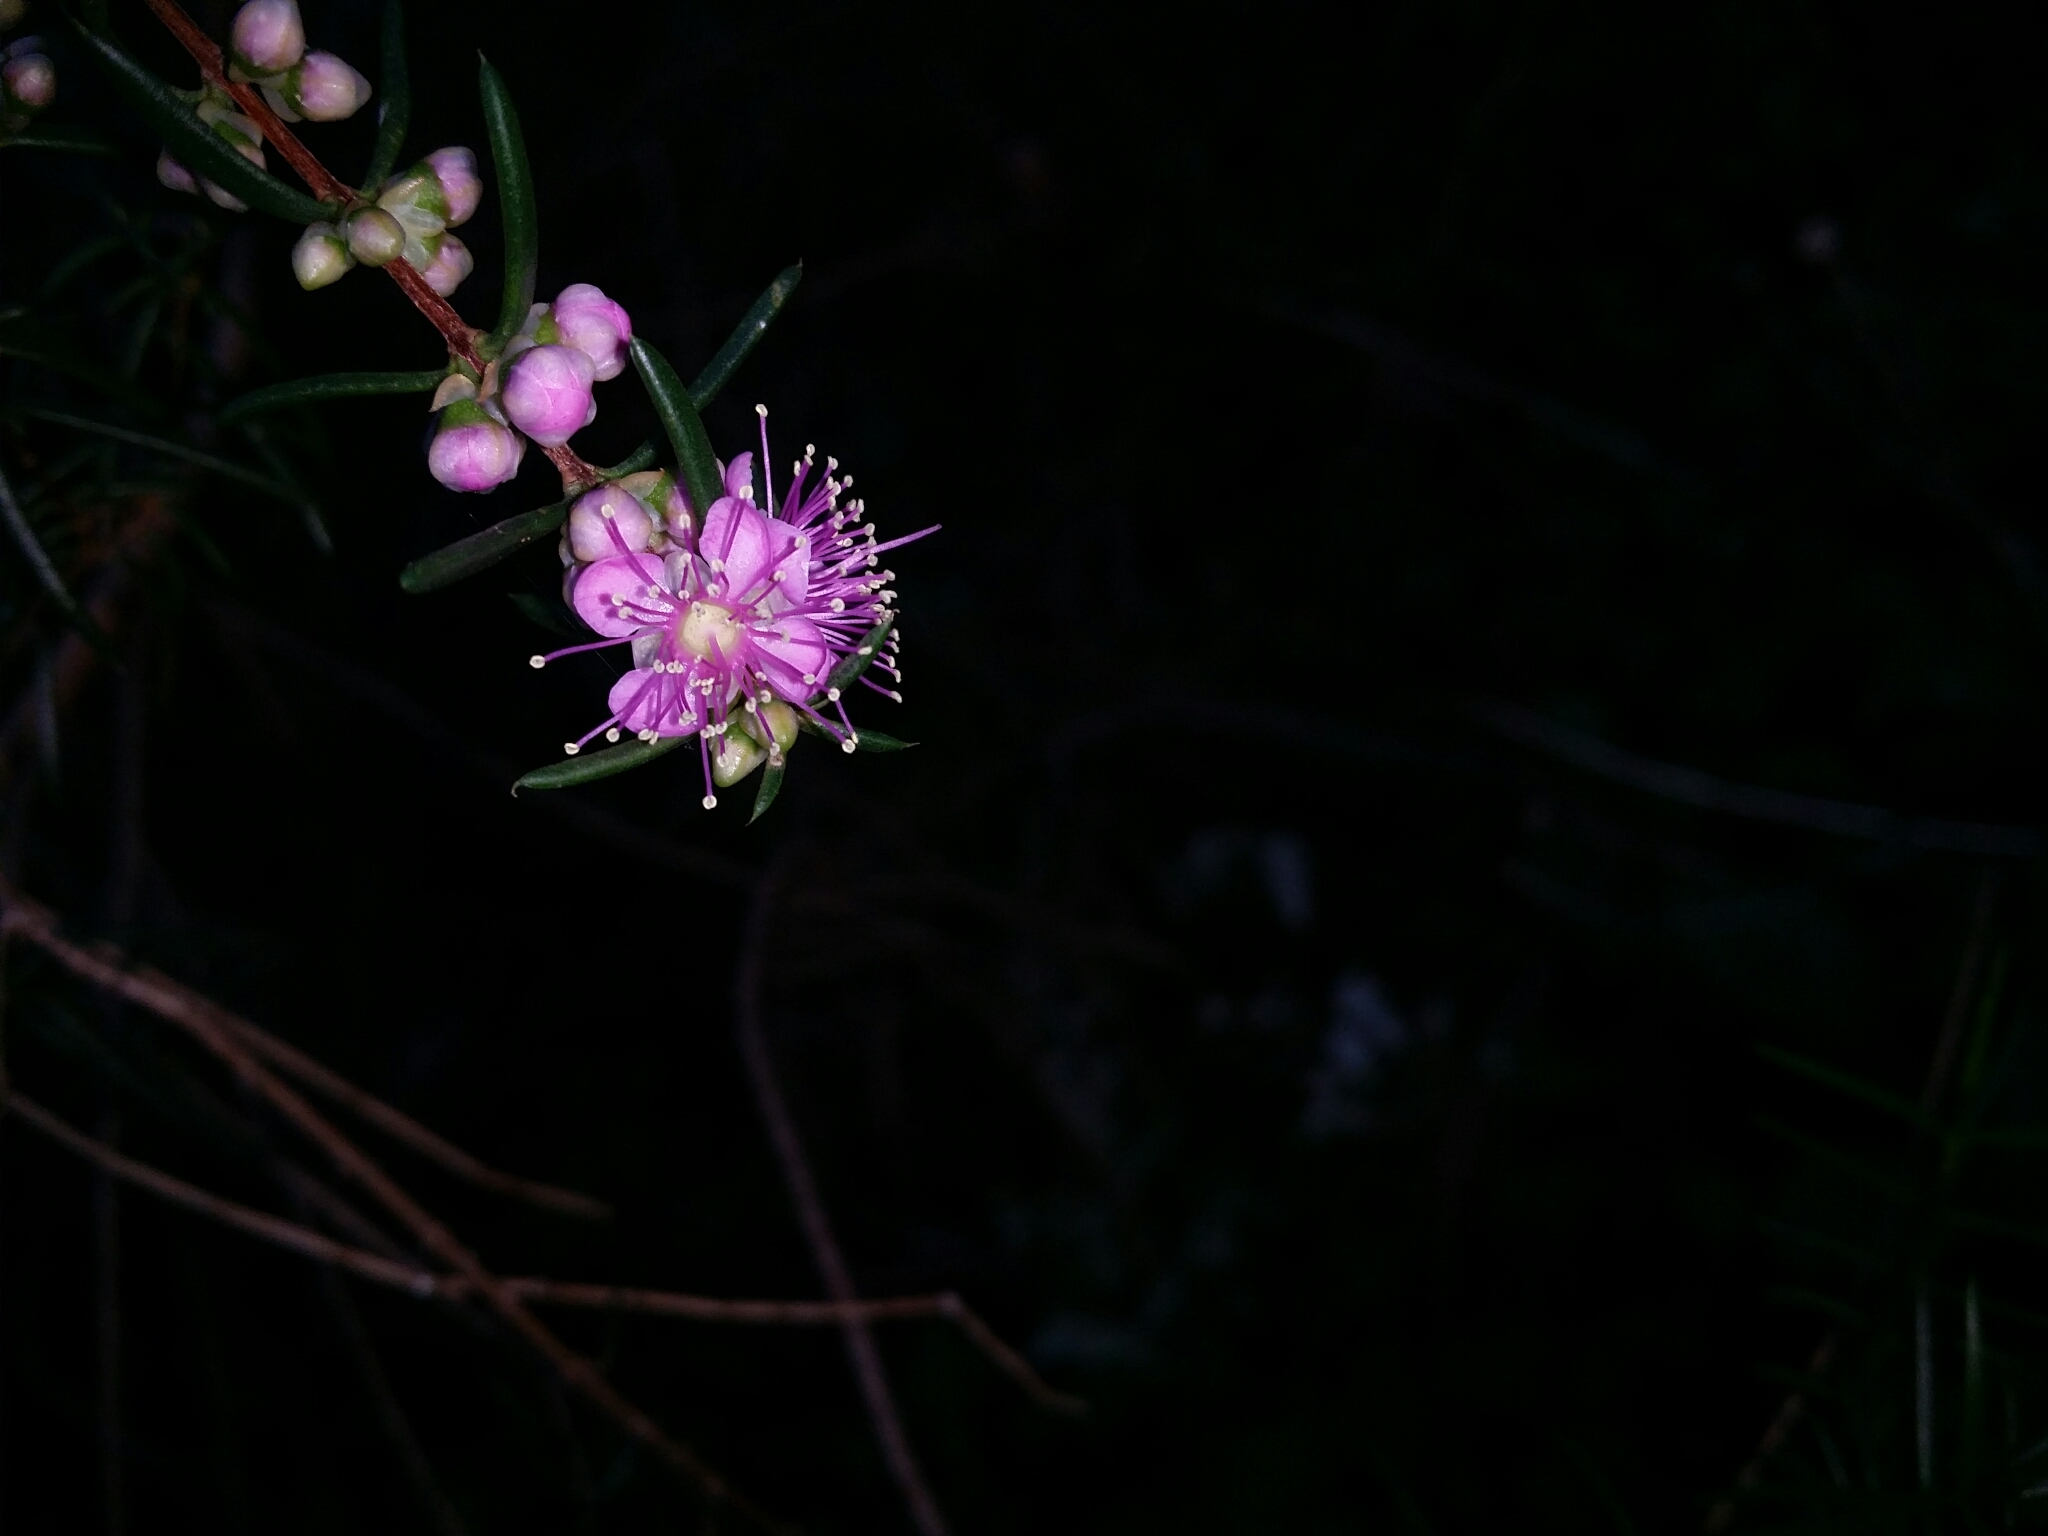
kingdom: Plantae
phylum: Tracheophyta
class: Magnoliopsida
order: Myrtales
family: Myrtaceae
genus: Hypocalymma
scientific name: Hypocalymma robustum
